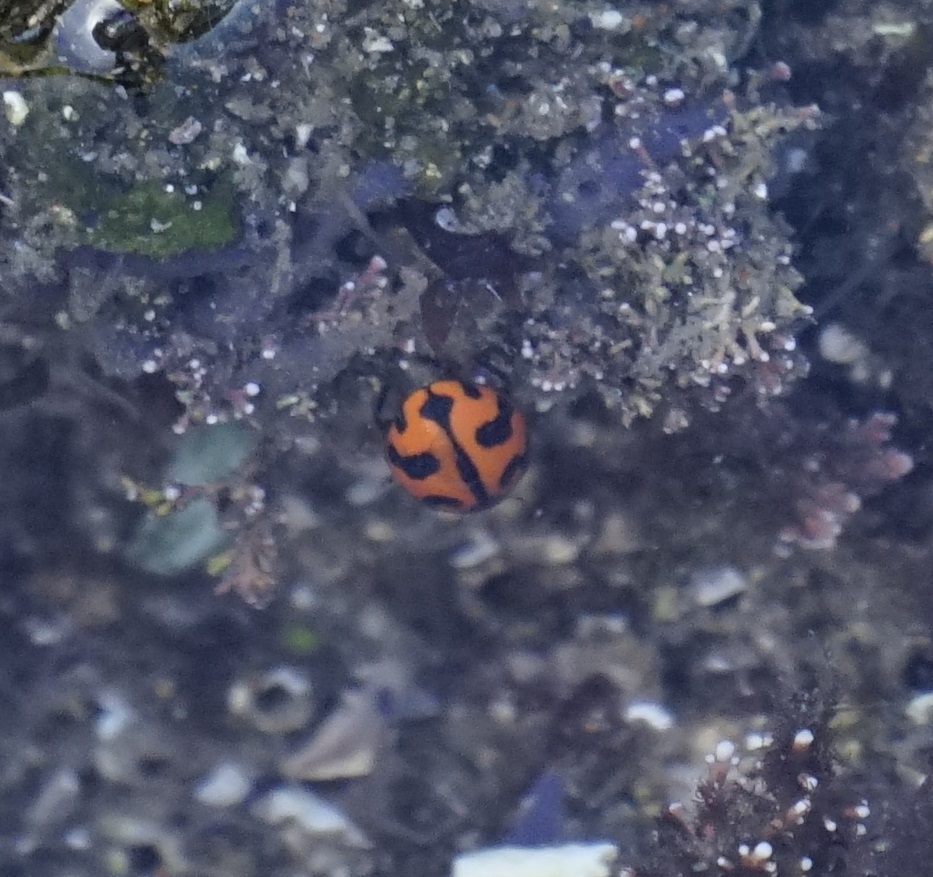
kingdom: Animalia
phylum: Arthropoda
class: Insecta
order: Coleoptera
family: Coccinellidae
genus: Coccinella
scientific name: Coccinella transversalis
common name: Transverse lady beetle
